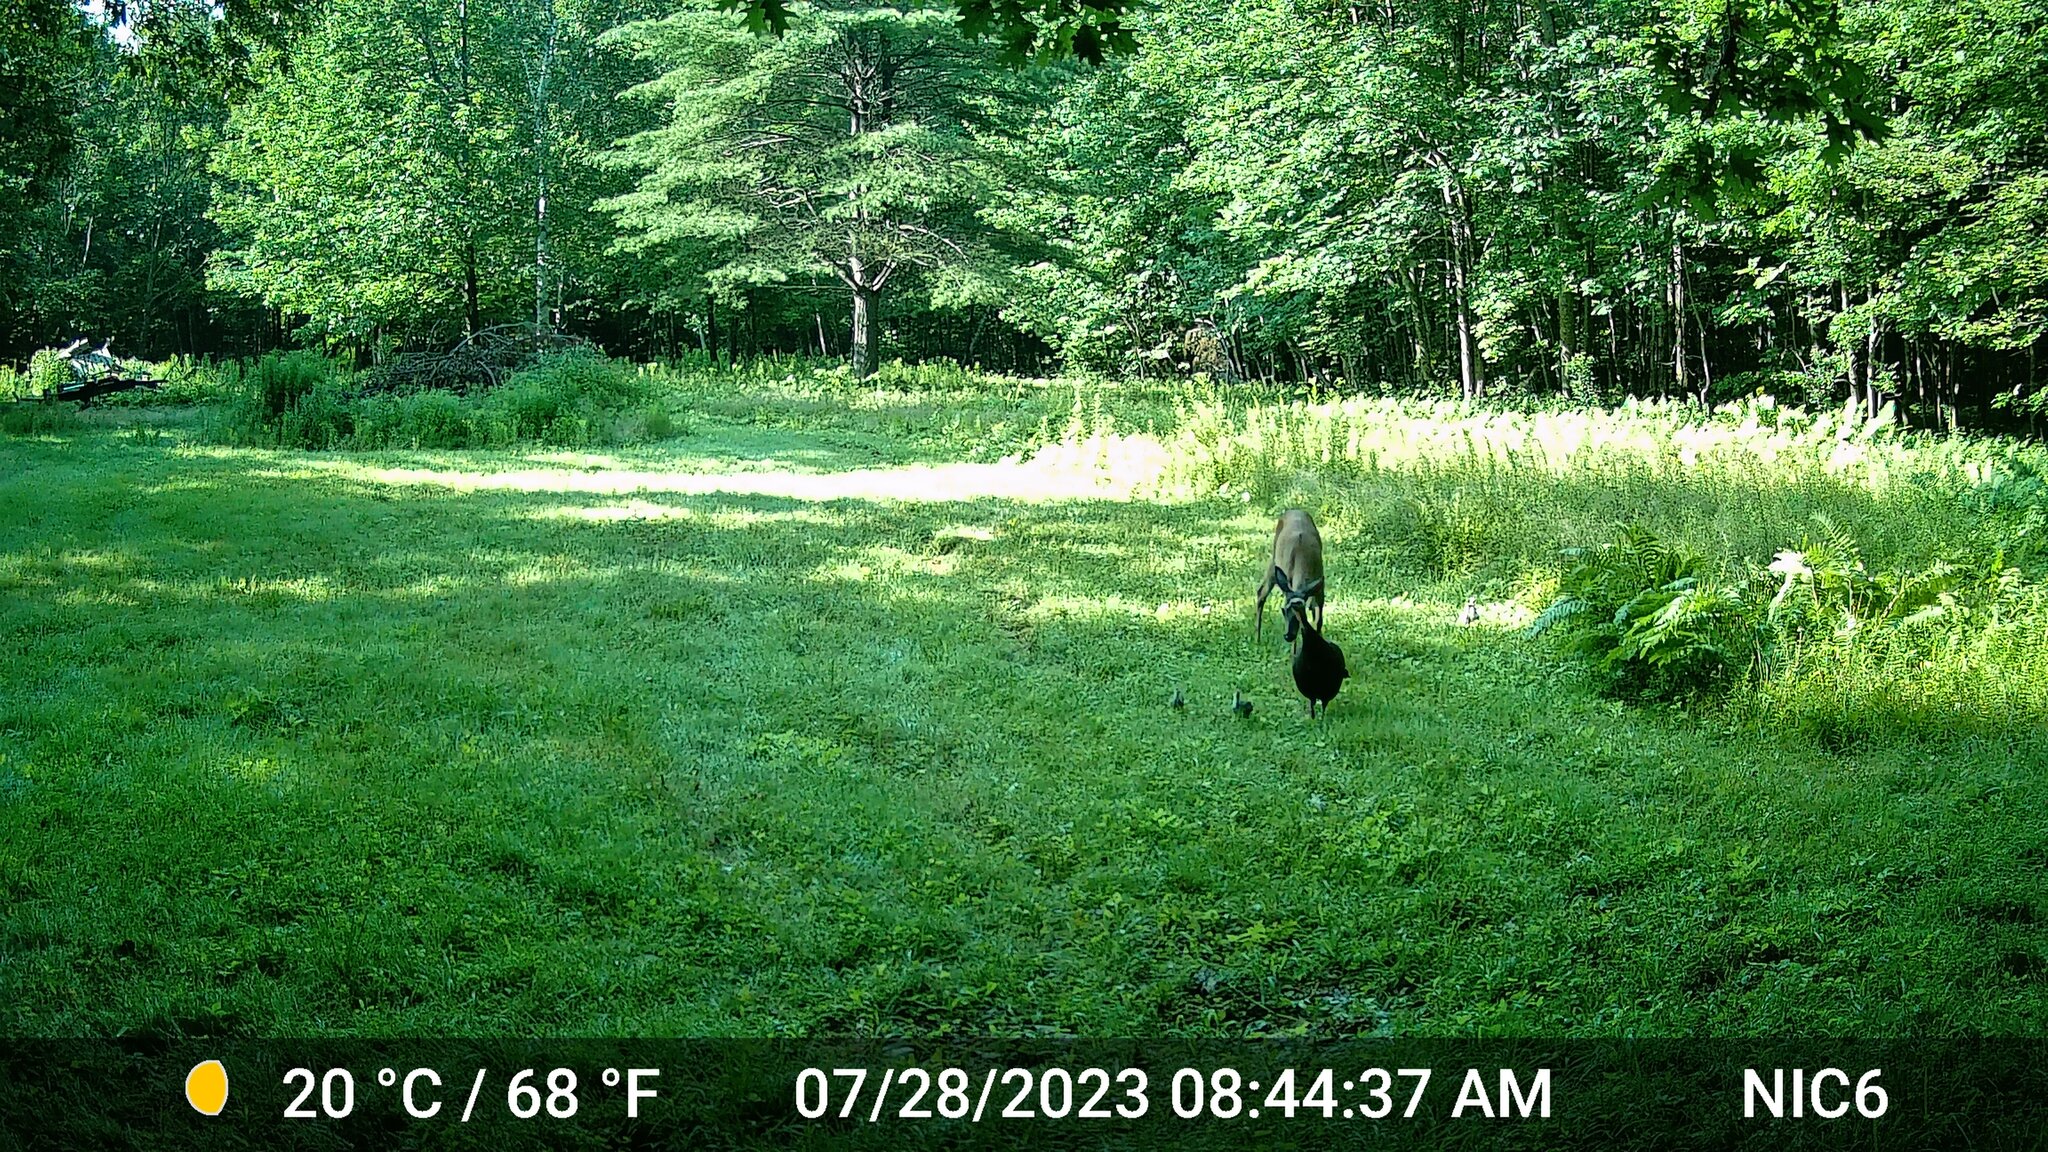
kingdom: Animalia
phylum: Chordata
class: Aves
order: Galliformes
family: Phasianidae
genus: Meleagris
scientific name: Meleagris gallopavo
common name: Wild turkey
